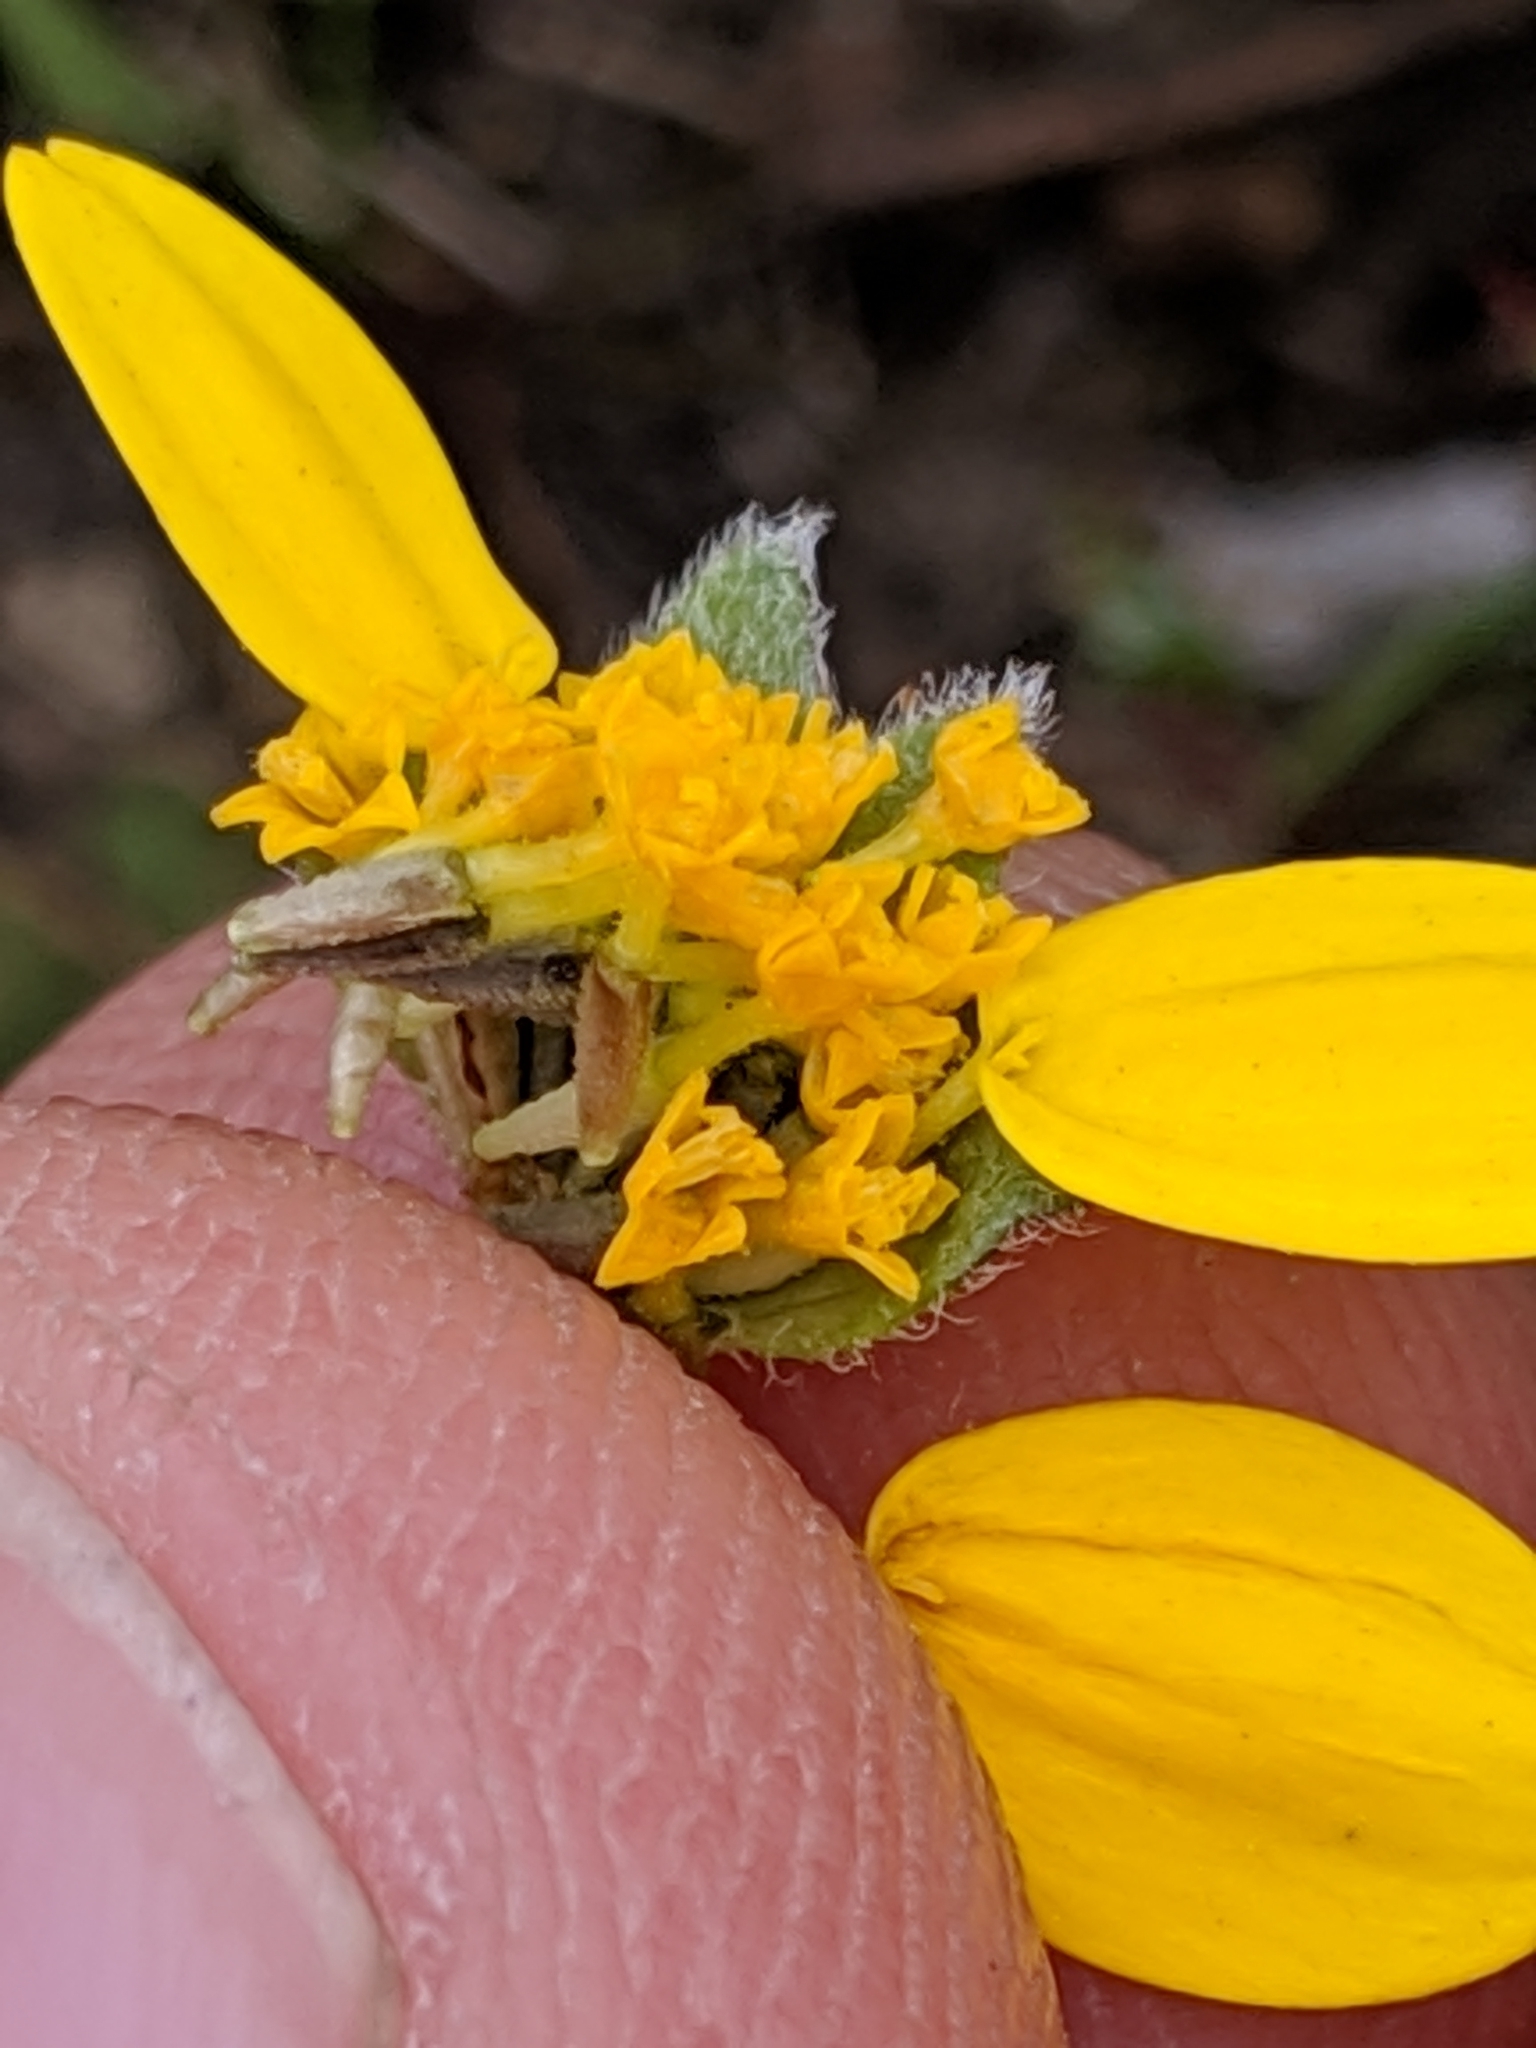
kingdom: Plantae
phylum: Tracheophyta
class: Magnoliopsida
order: Asterales
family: Asteraceae
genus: Lasthenia
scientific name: Lasthenia californica
